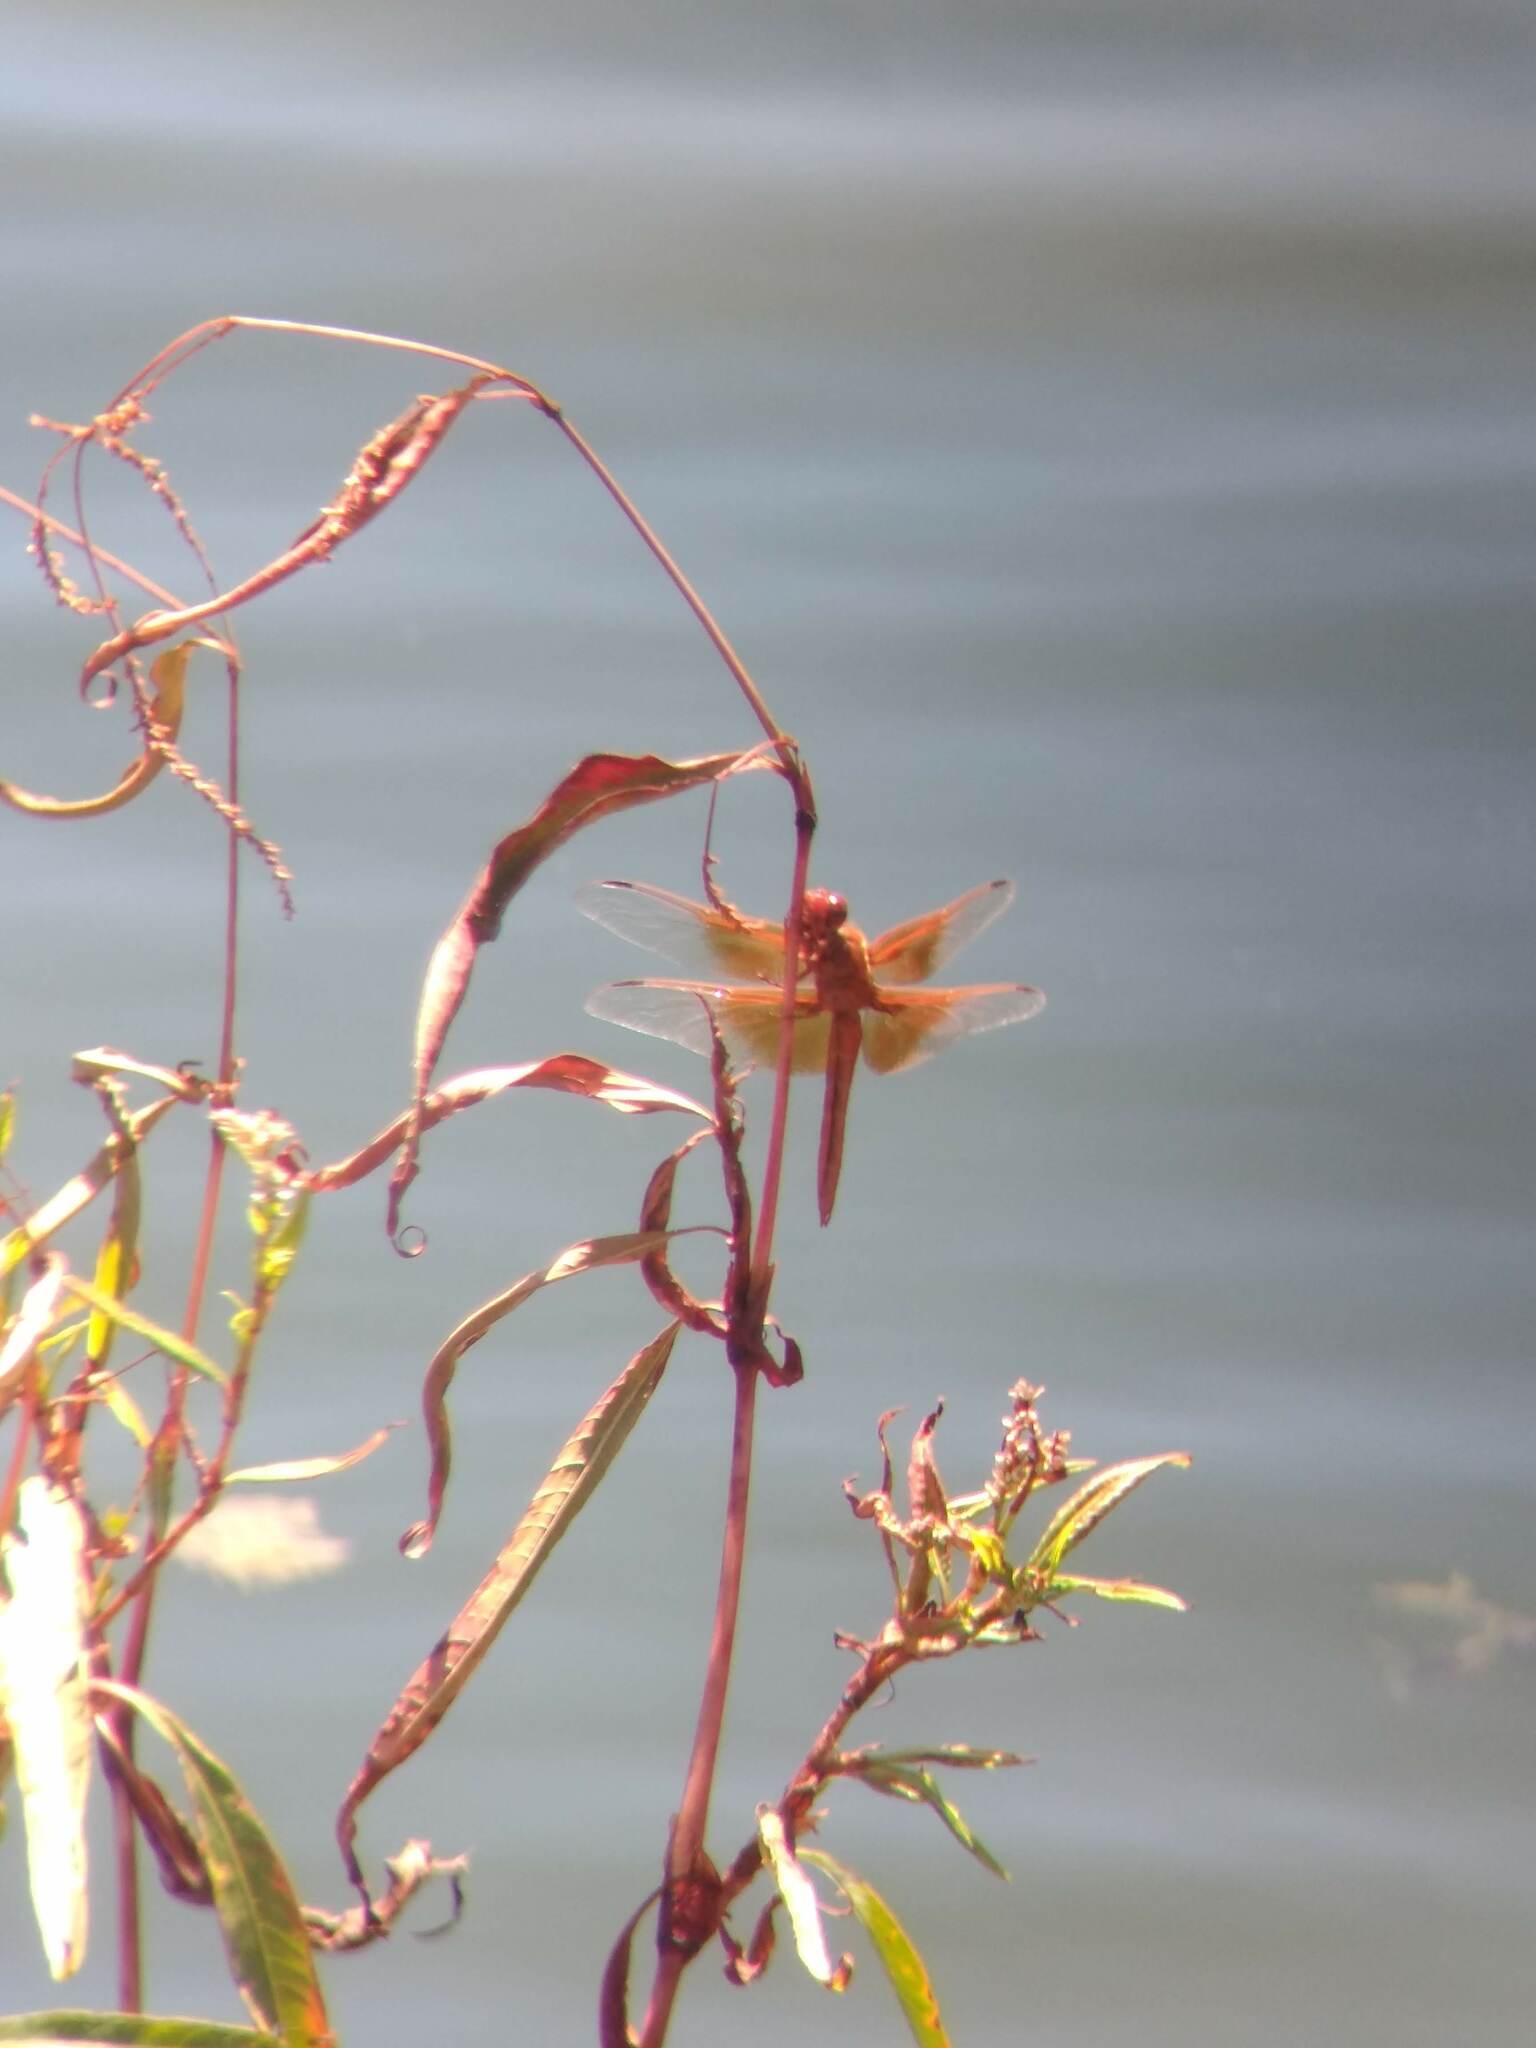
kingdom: Animalia
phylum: Arthropoda
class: Insecta
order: Odonata
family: Libellulidae
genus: Libellula
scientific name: Libellula saturata
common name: Flame skimmer
